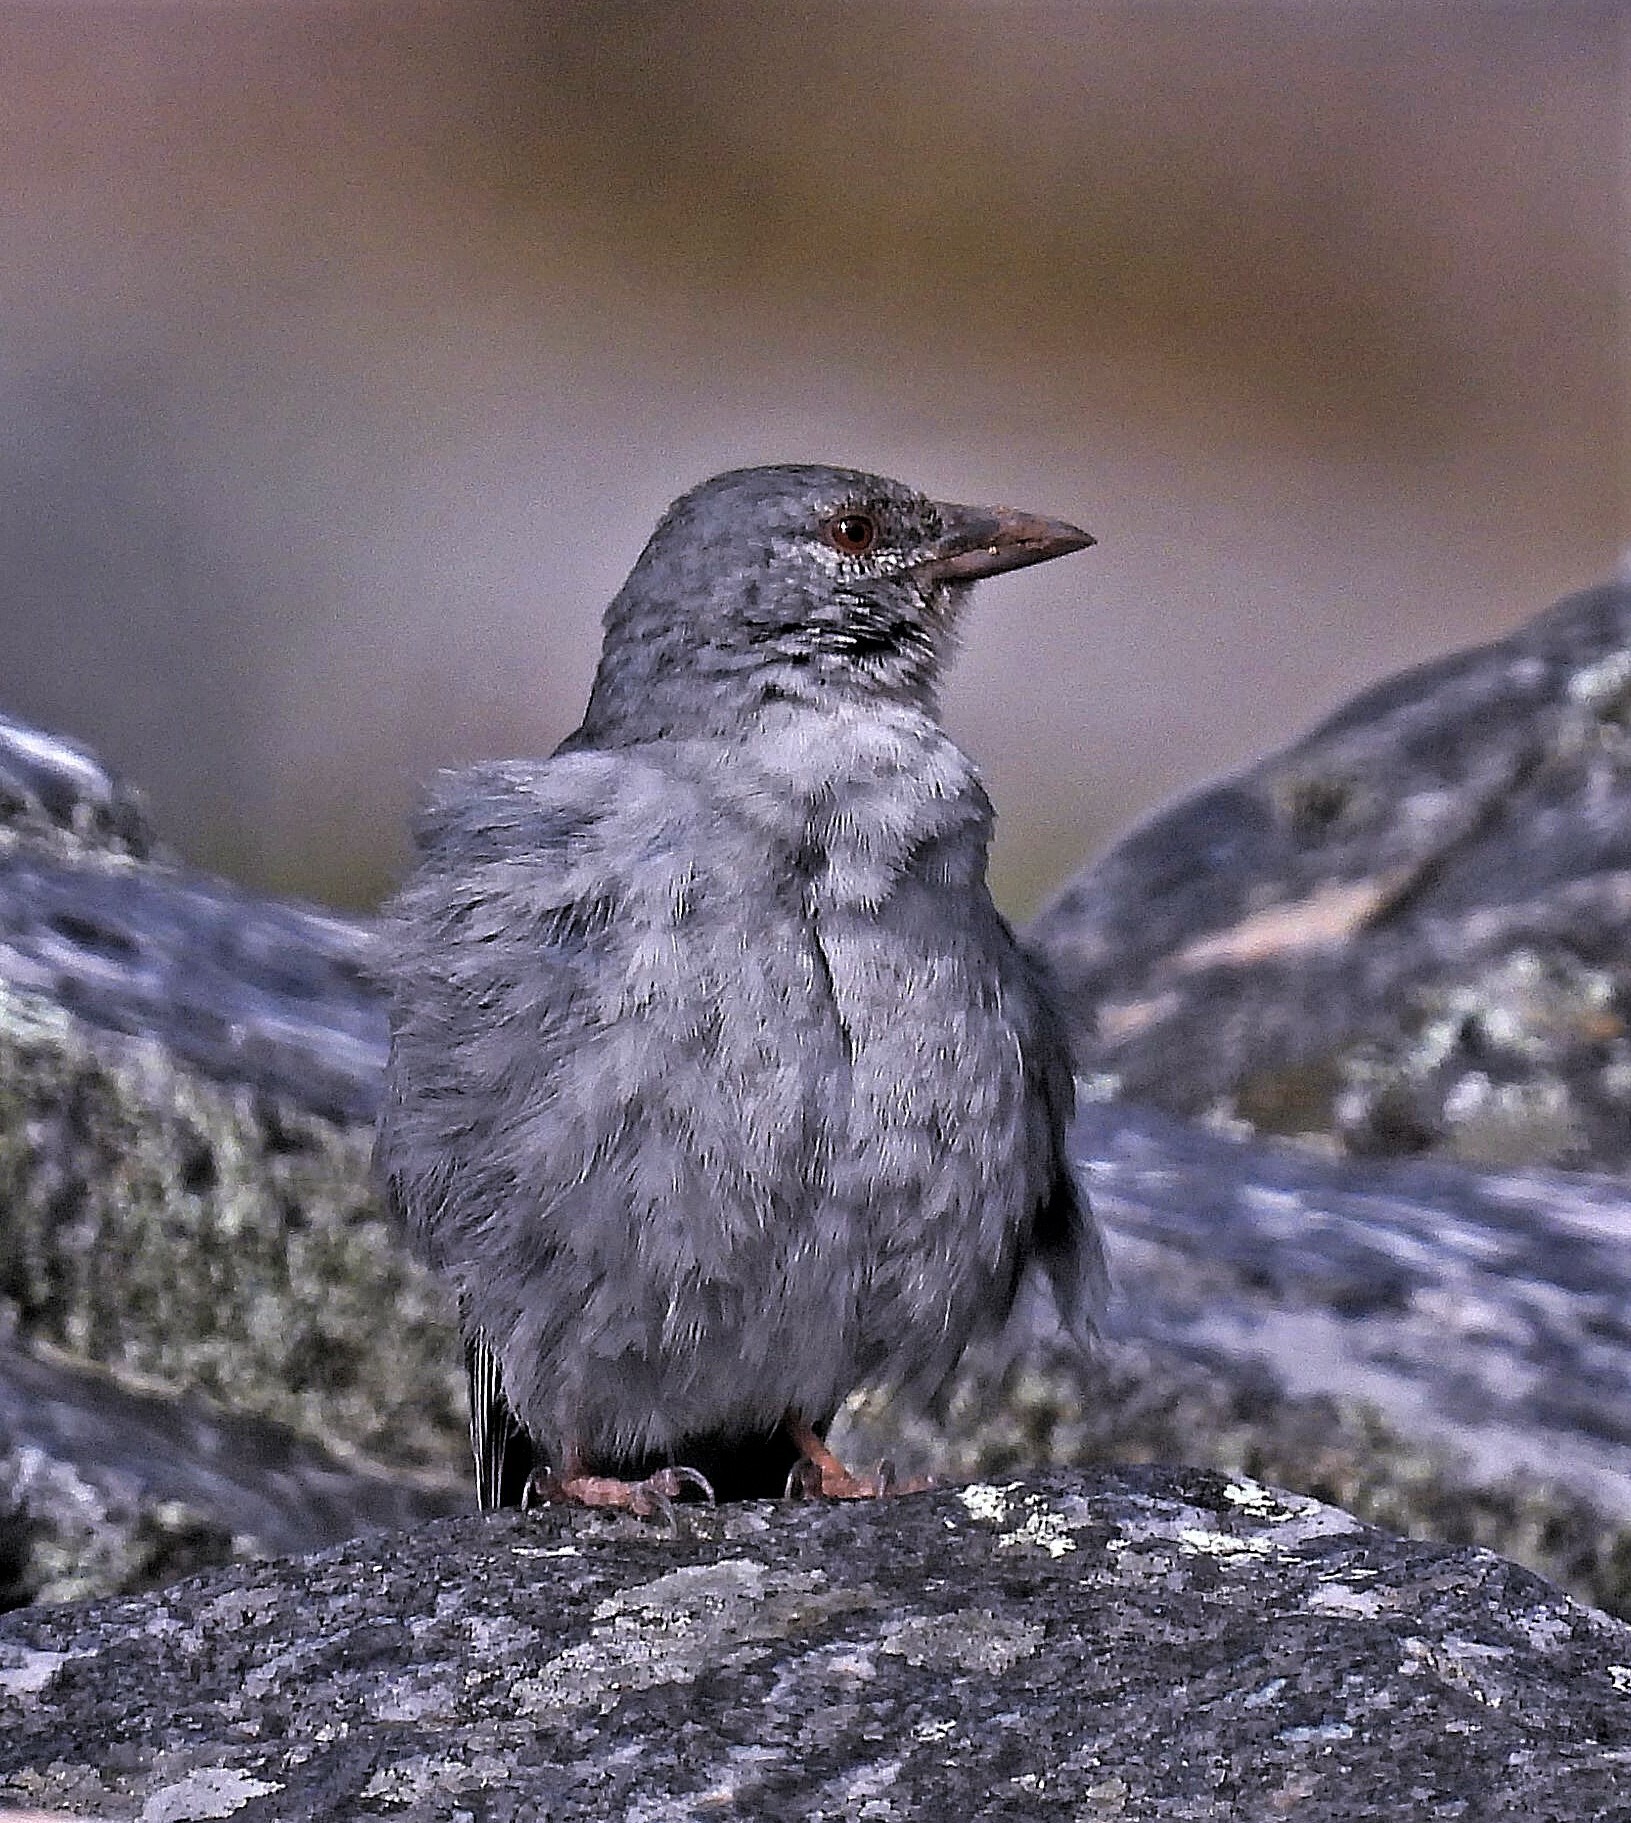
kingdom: Animalia
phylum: Chordata
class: Aves
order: Passeriformes
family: Thraupidae
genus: Idiopsar
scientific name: Idiopsar brachyurus
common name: Short-tailed finch
